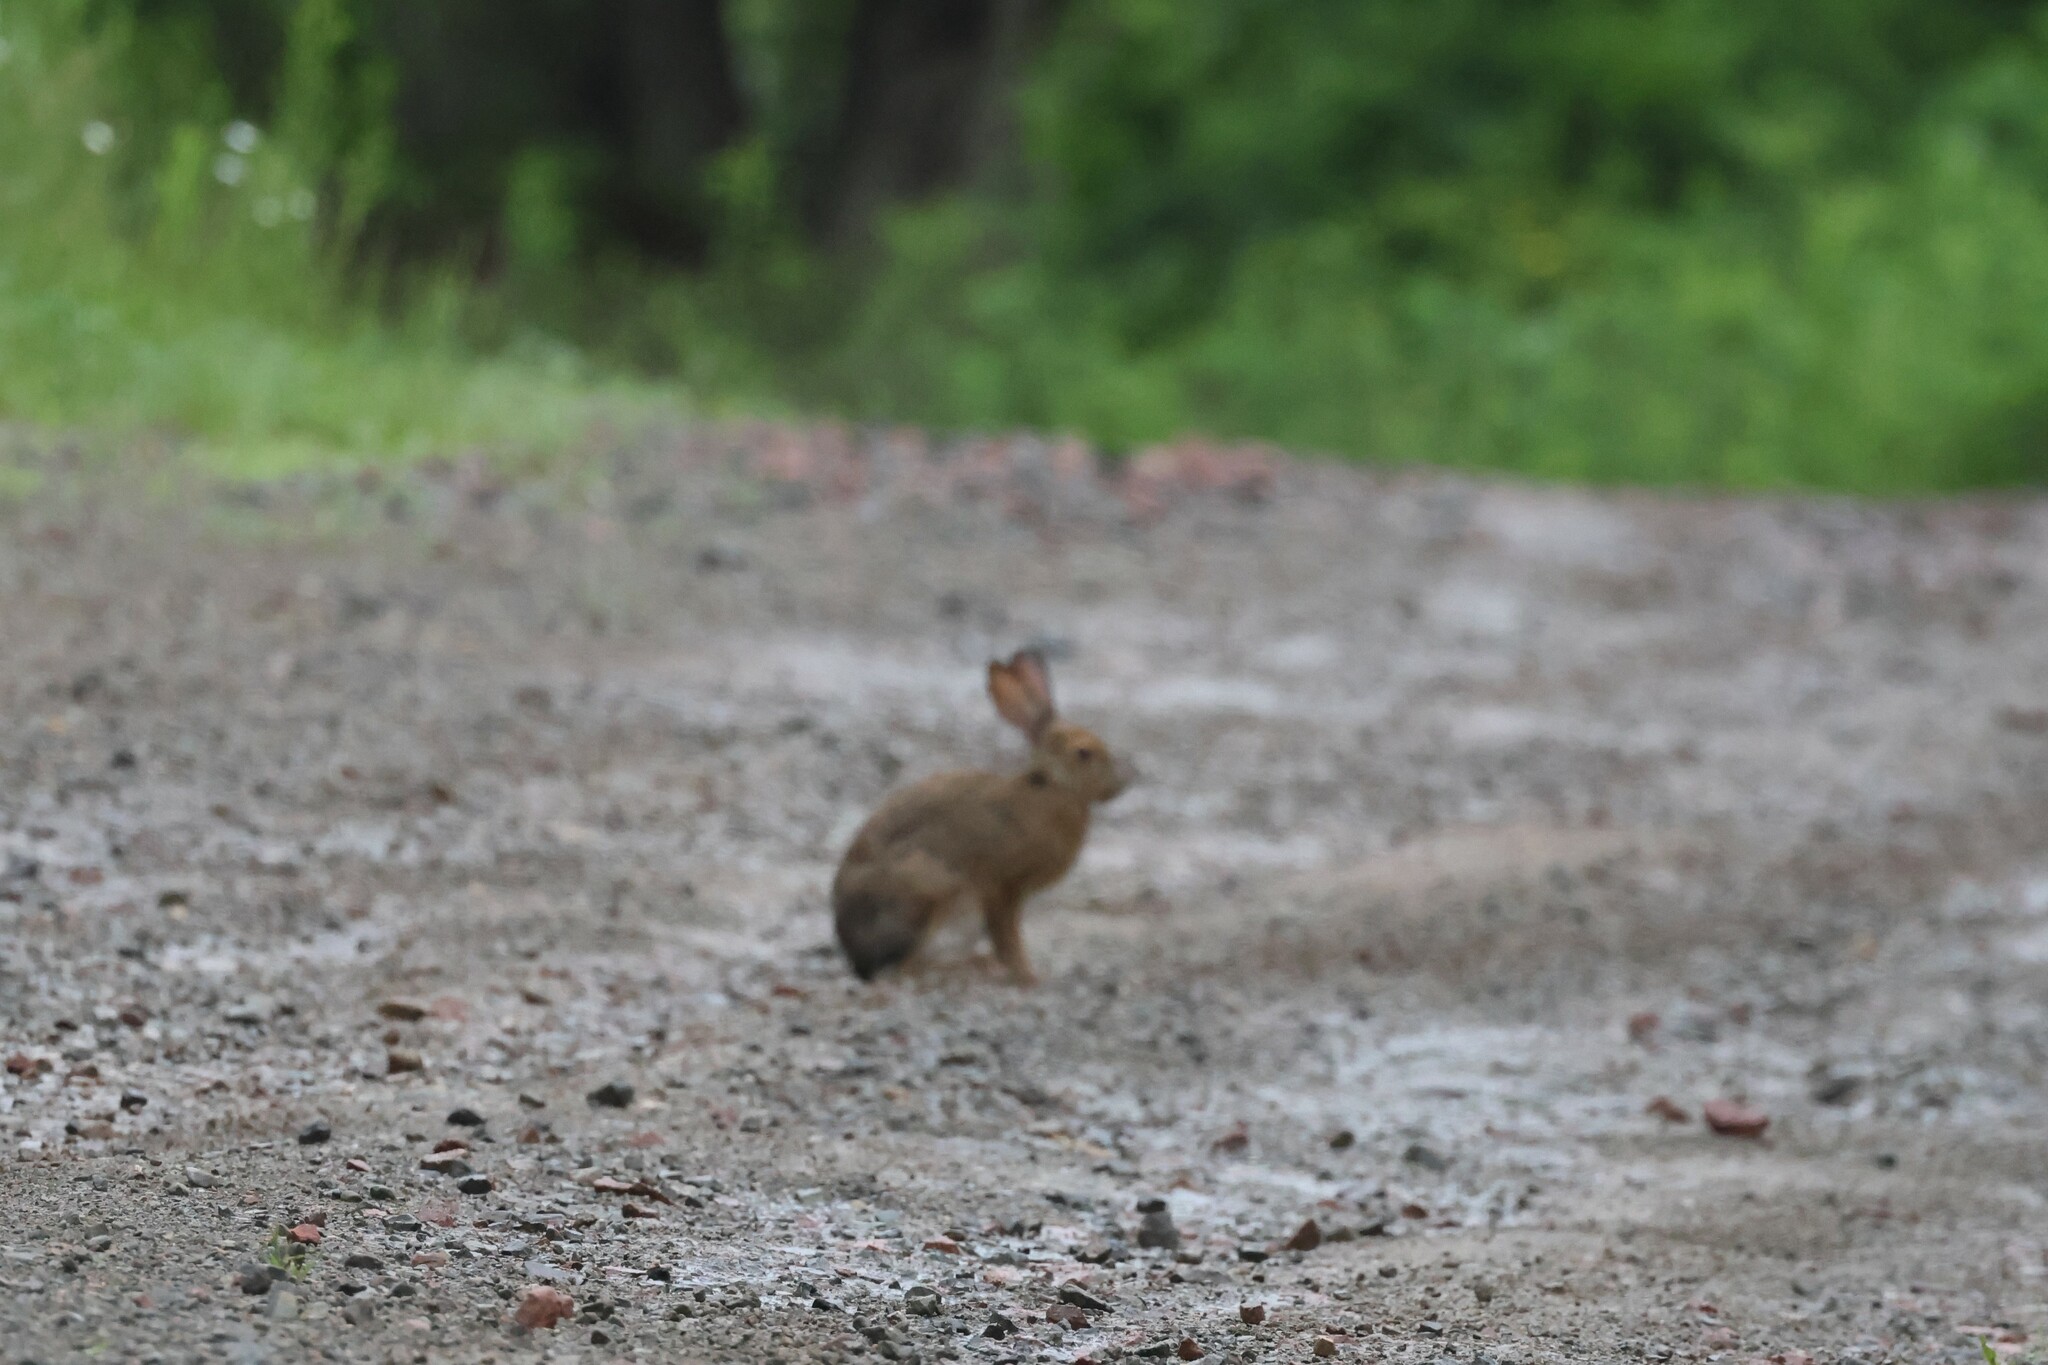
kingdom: Animalia
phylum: Chordata
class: Mammalia
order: Lagomorpha
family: Leporidae
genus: Lepus
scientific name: Lepus americanus
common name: Snowshoe hare
